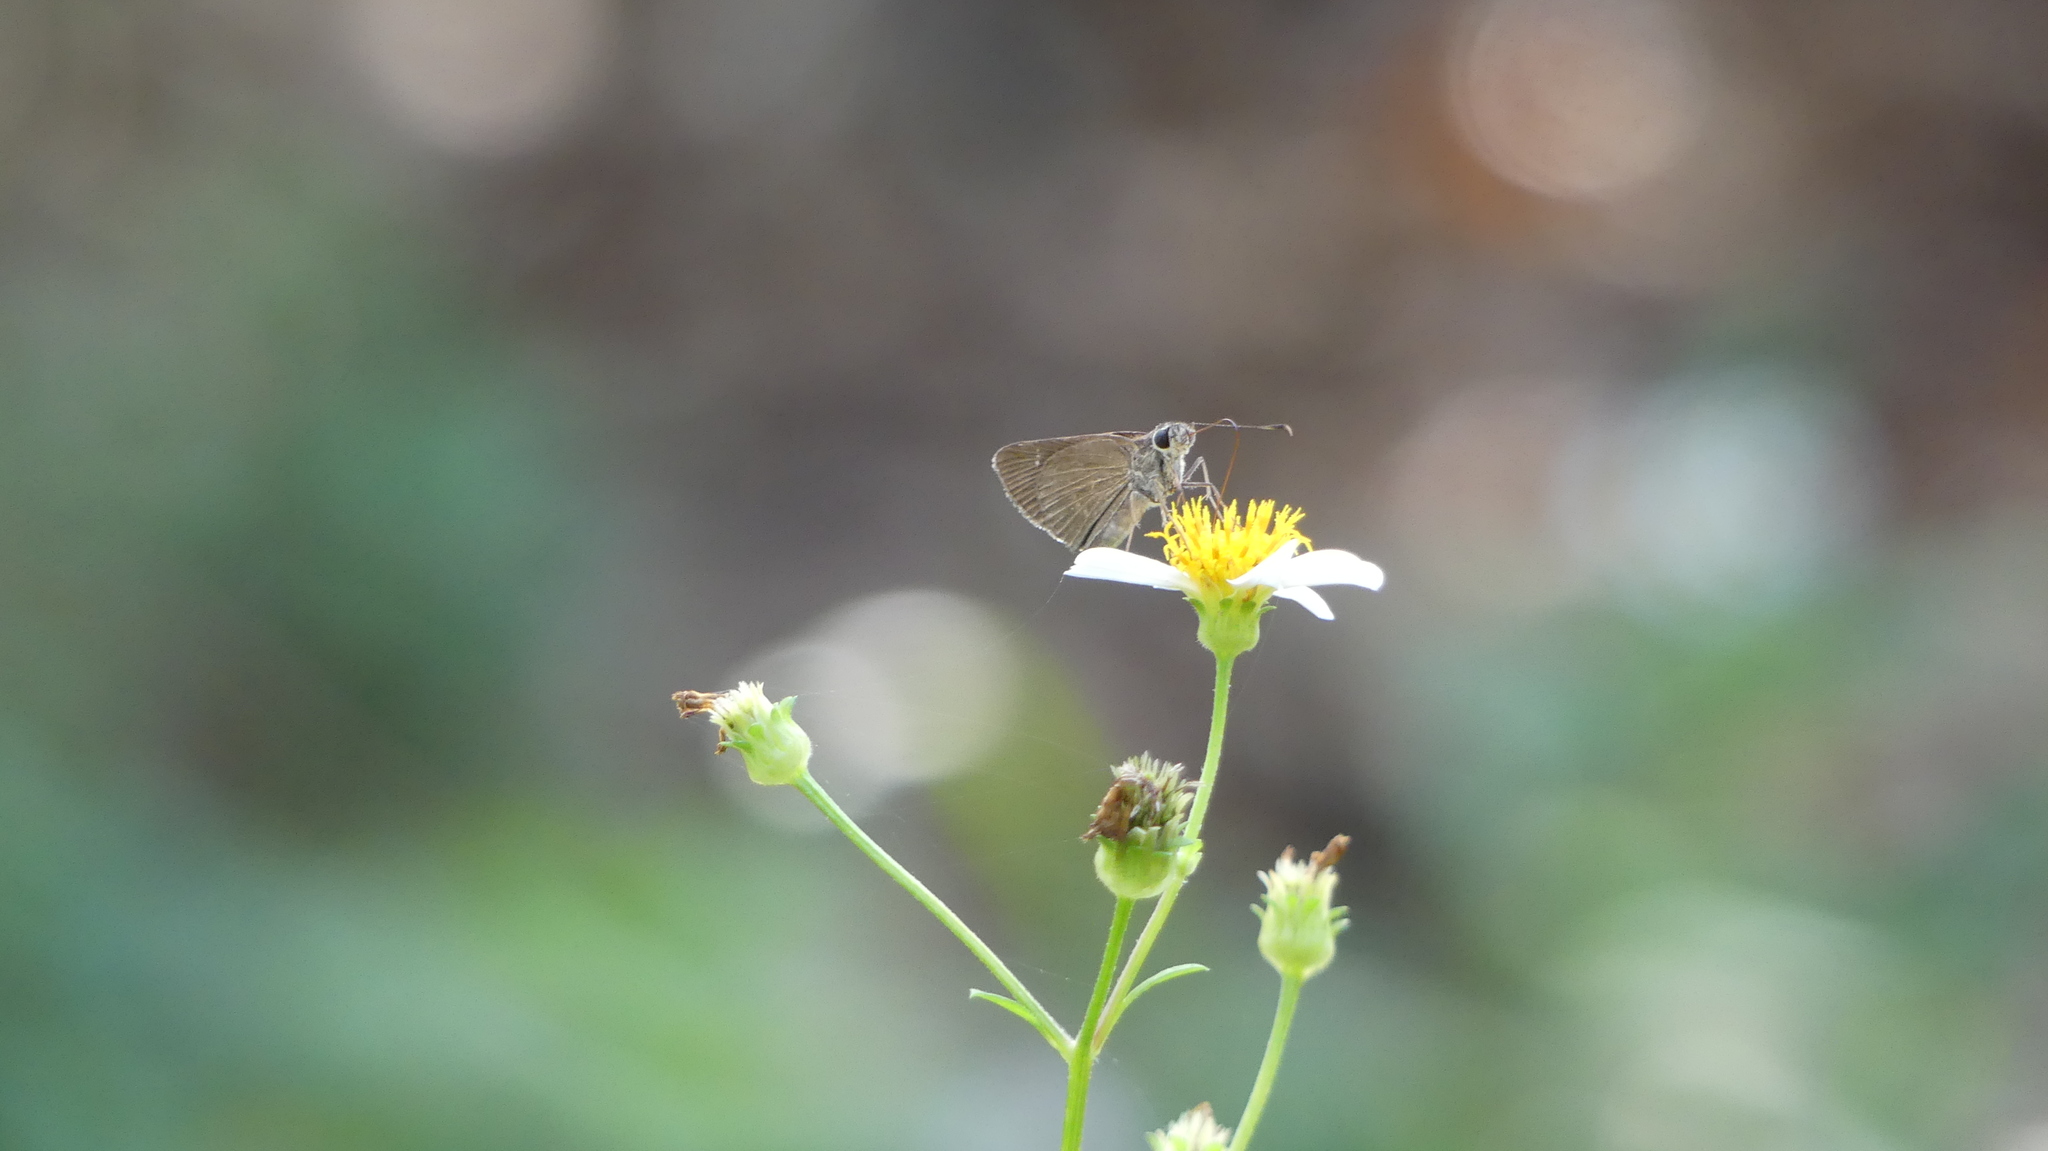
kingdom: Animalia
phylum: Arthropoda
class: Insecta
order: Lepidoptera
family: Hesperiidae
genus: Cymaenes
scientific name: Cymaenes tripunctus
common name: Dingy dotted skipper
